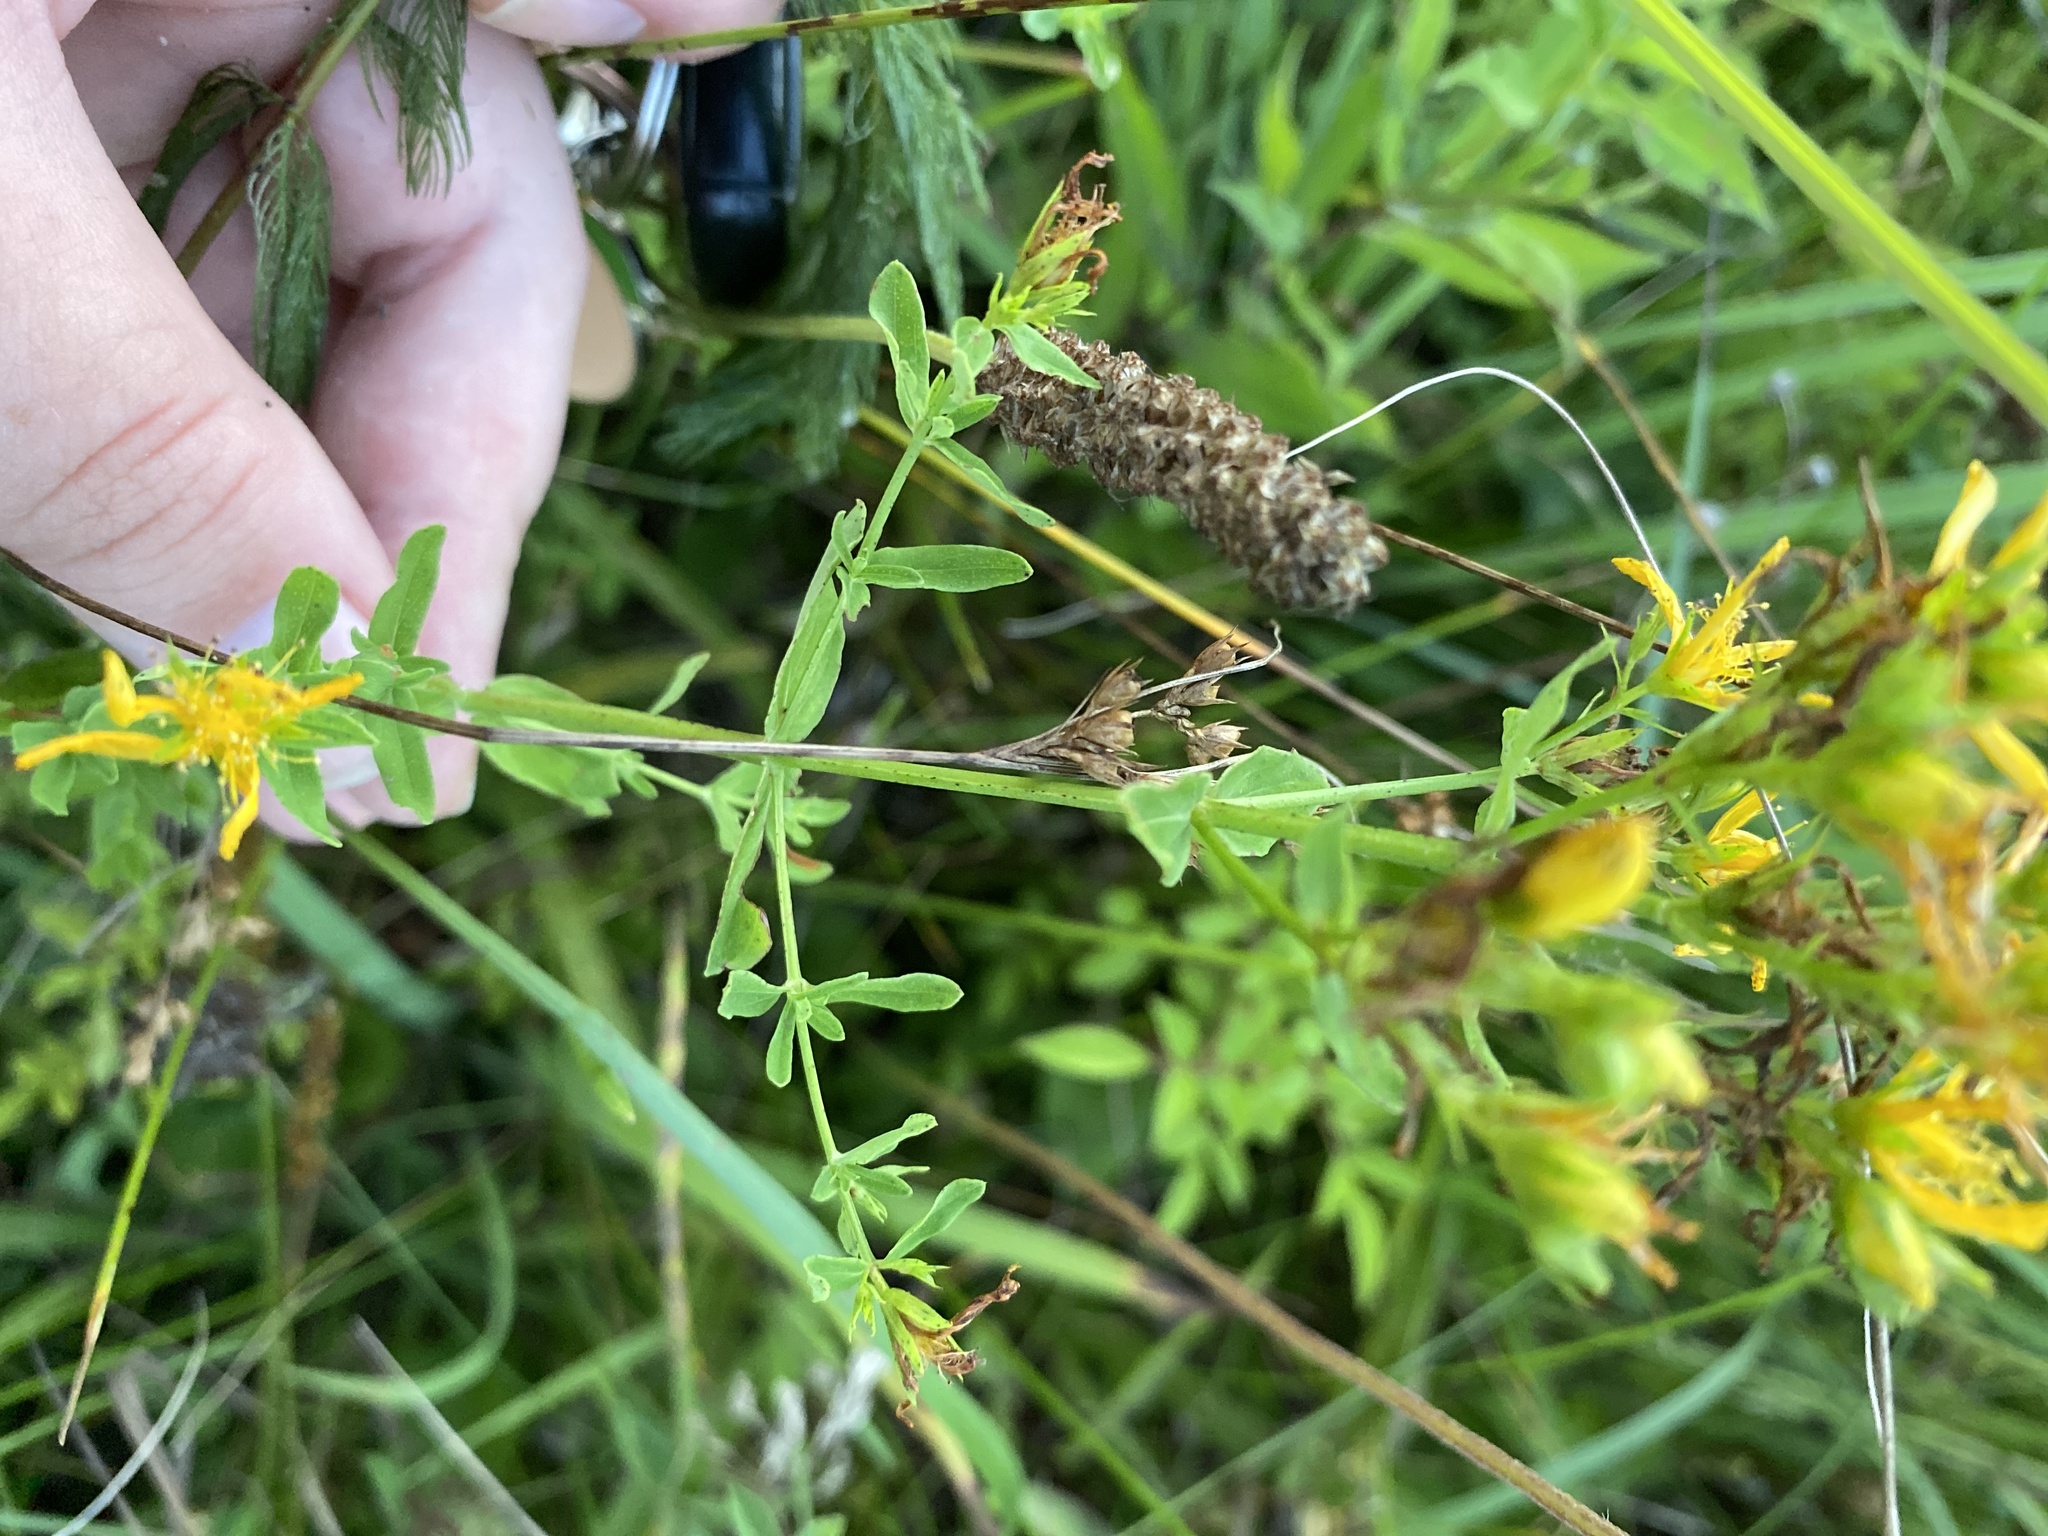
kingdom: Plantae
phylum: Tracheophyta
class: Magnoliopsida
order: Malpighiales
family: Hypericaceae
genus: Hypericum
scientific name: Hypericum punctatum
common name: Spotted st. john's-wort
